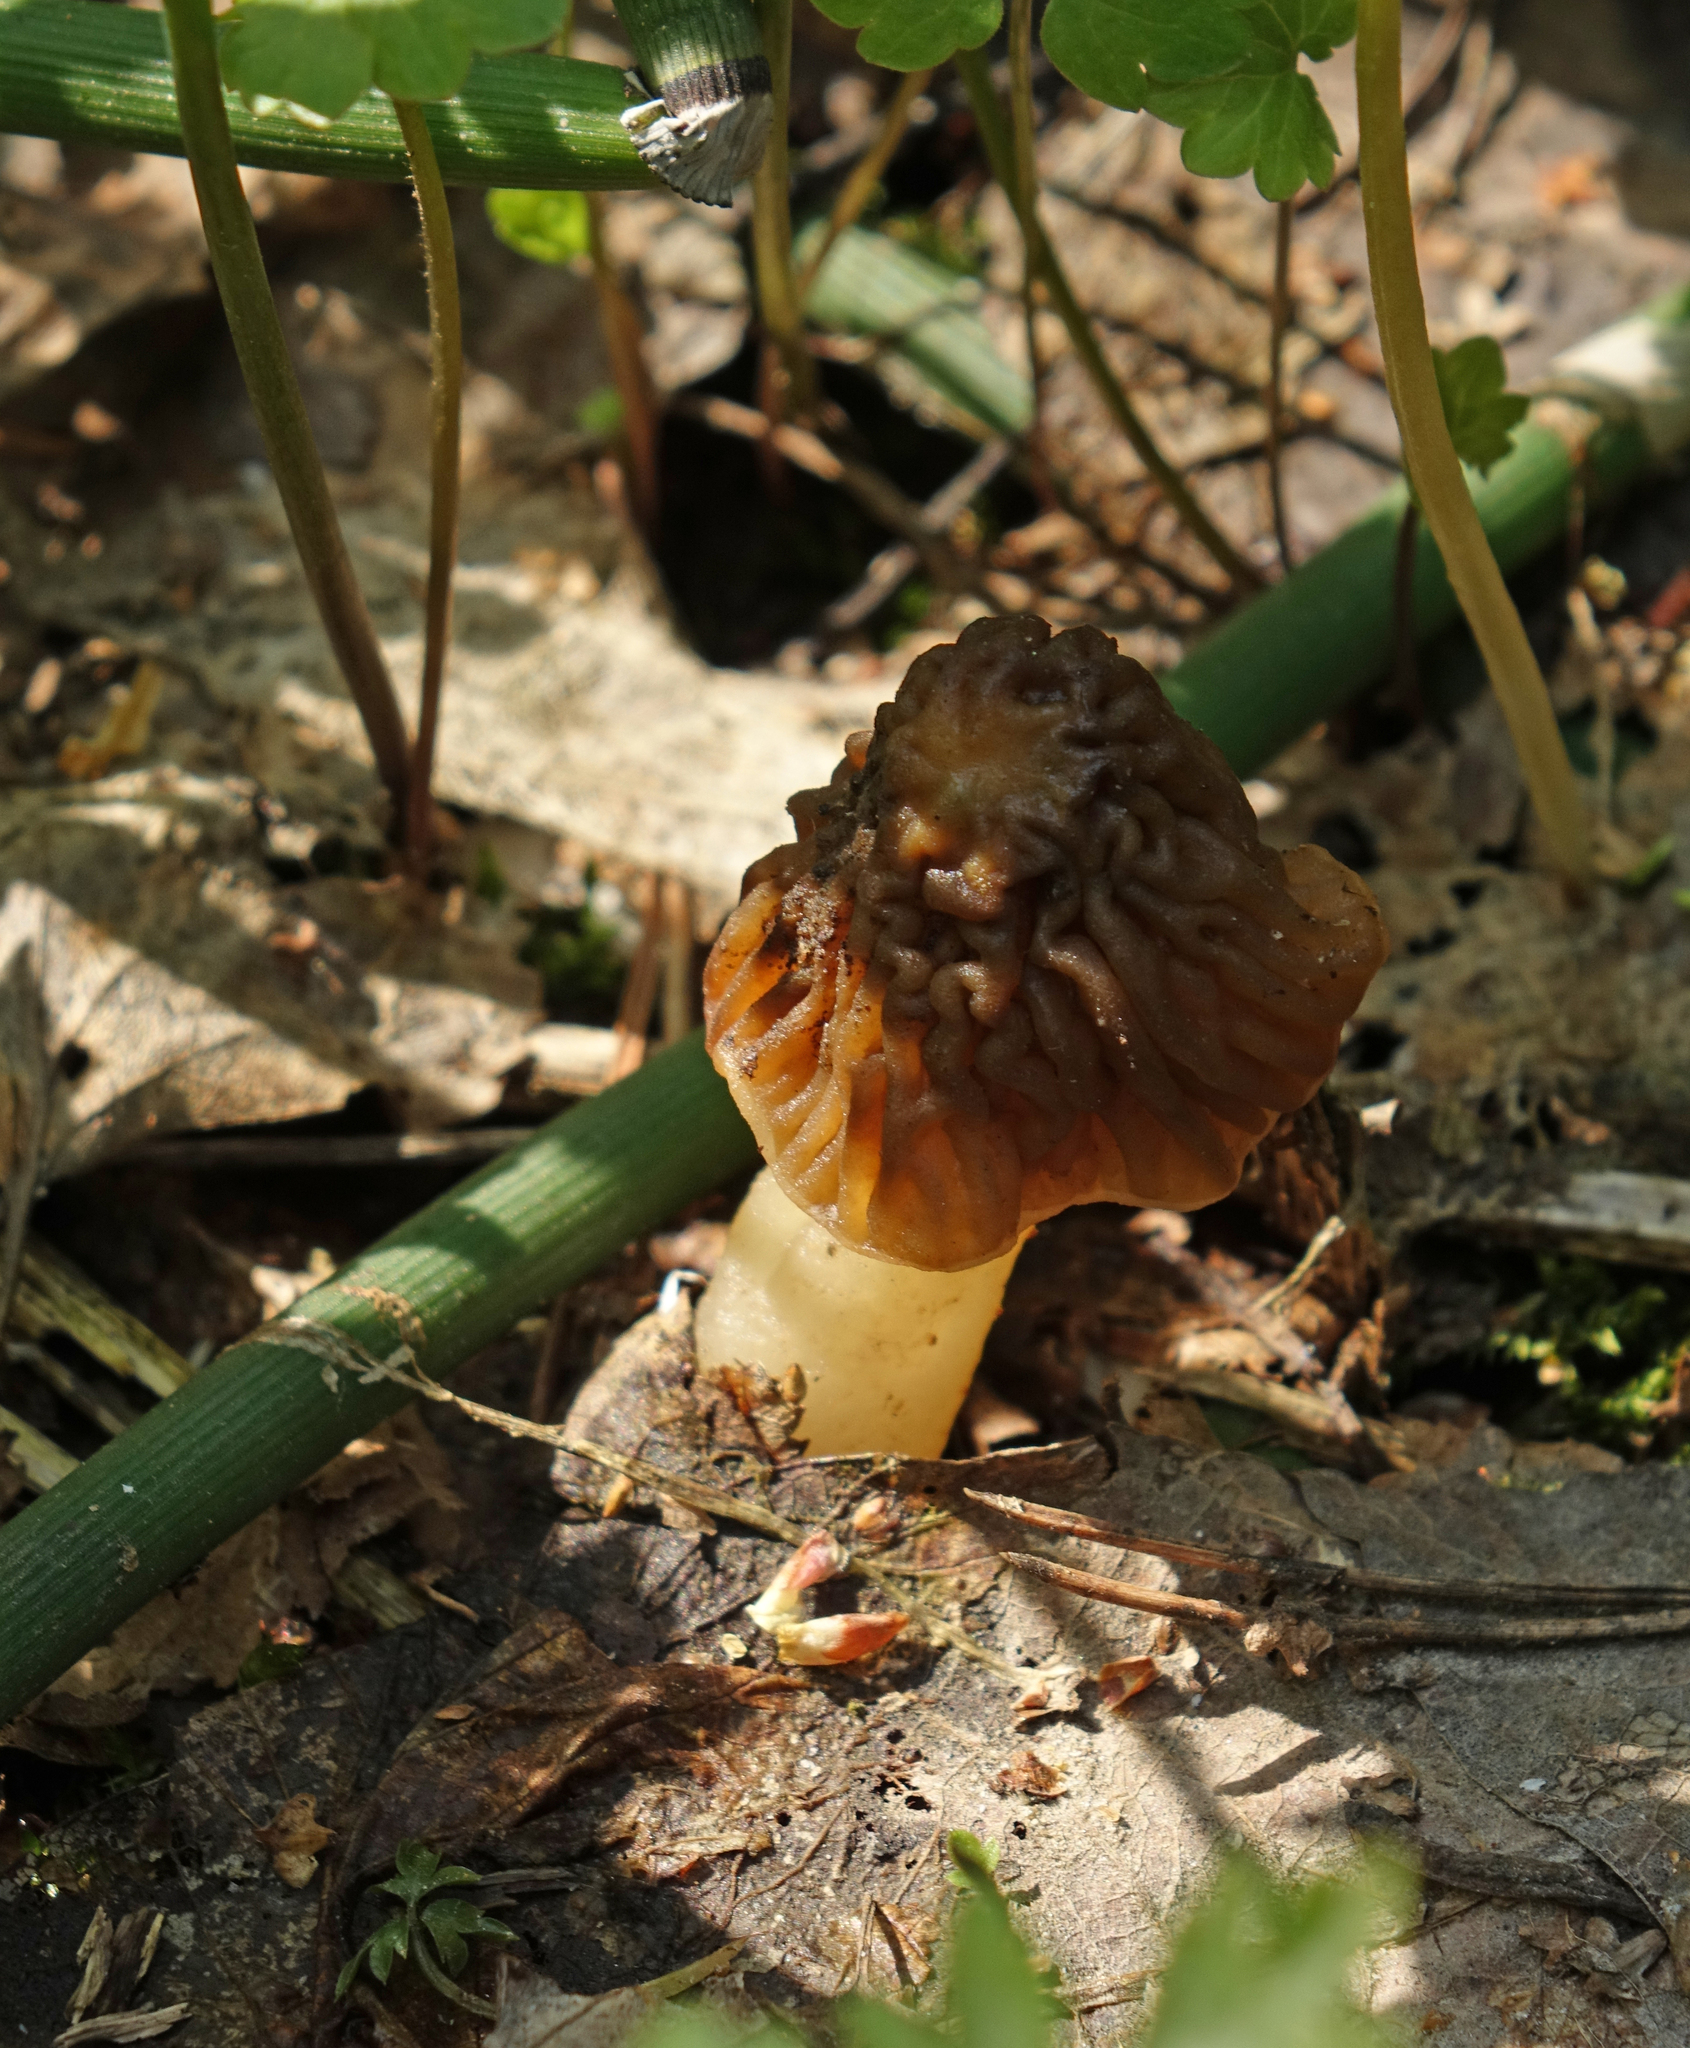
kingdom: Fungi
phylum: Ascomycota
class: Pezizomycetes
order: Pezizales
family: Morchellaceae
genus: Verpa
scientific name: Verpa bohemica
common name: Wrinkled thimble morel
